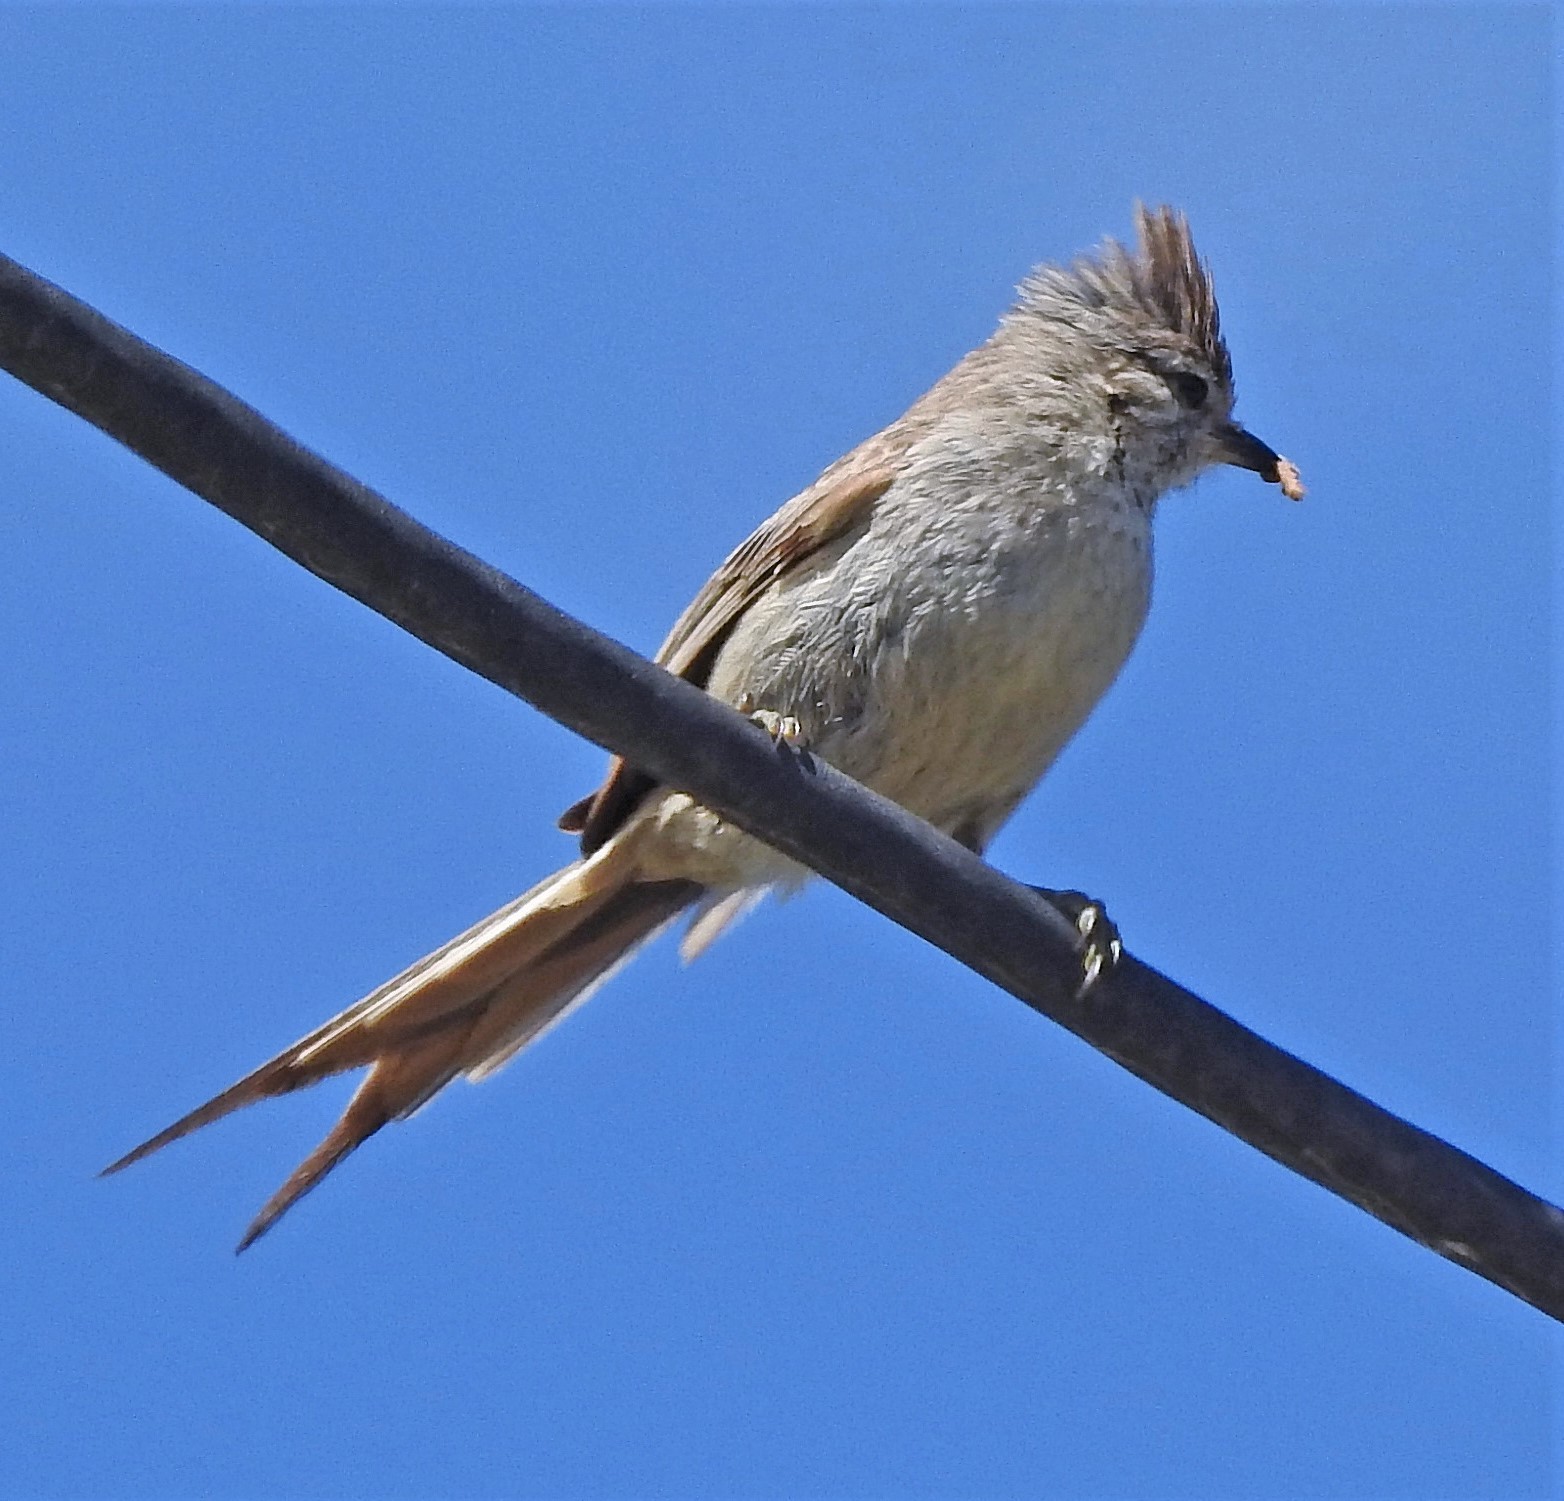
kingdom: Animalia
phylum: Chordata
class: Aves
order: Passeriformes
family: Furnariidae
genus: Leptasthenura
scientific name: Leptasthenura platensis
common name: Tufted tit-spinetail
